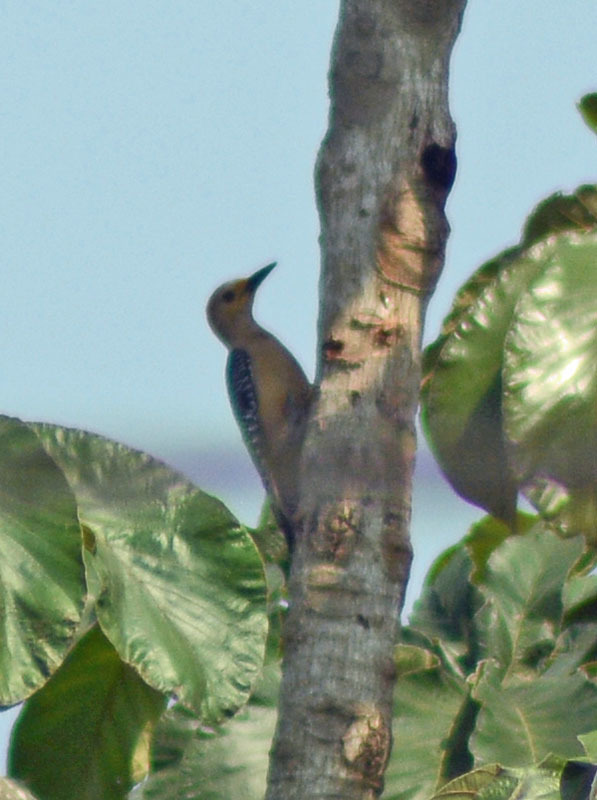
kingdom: Animalia
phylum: Chordata
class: Aves
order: Piciformes
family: Picidae
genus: Melanerpes
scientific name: Melanerpes aurifrons
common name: Golden-fronted woodpecker
